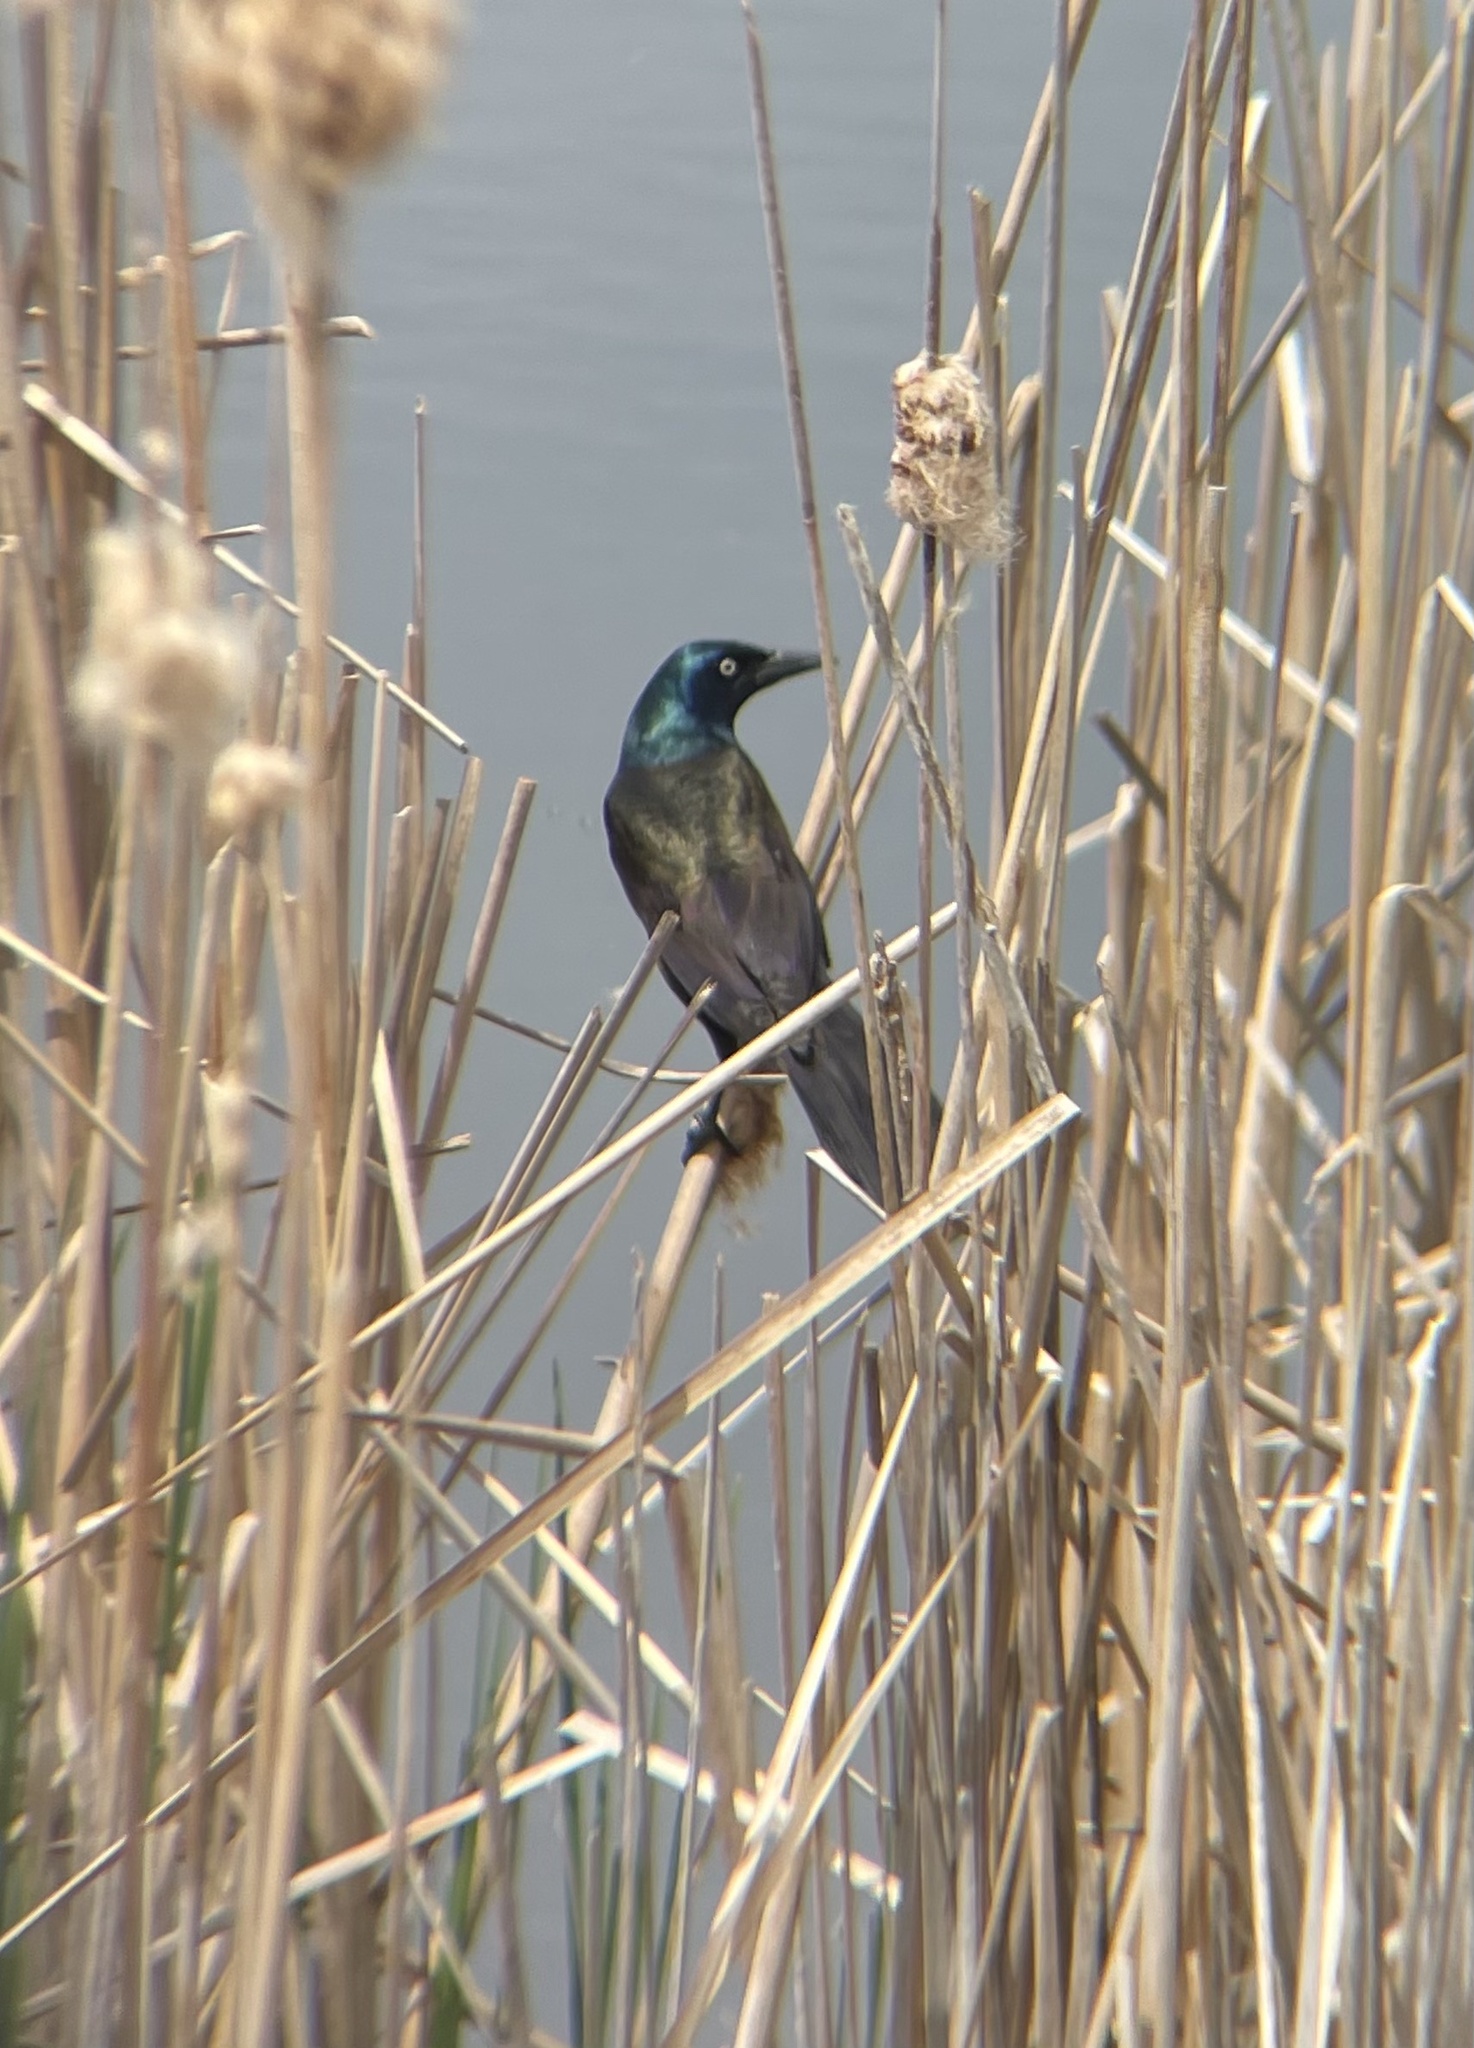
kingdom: Animalia
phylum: Chordata
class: Aves
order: Passeriformes
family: Icteridae
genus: Quiscalus
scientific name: Quiscalus quiscula
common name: Common grackle
